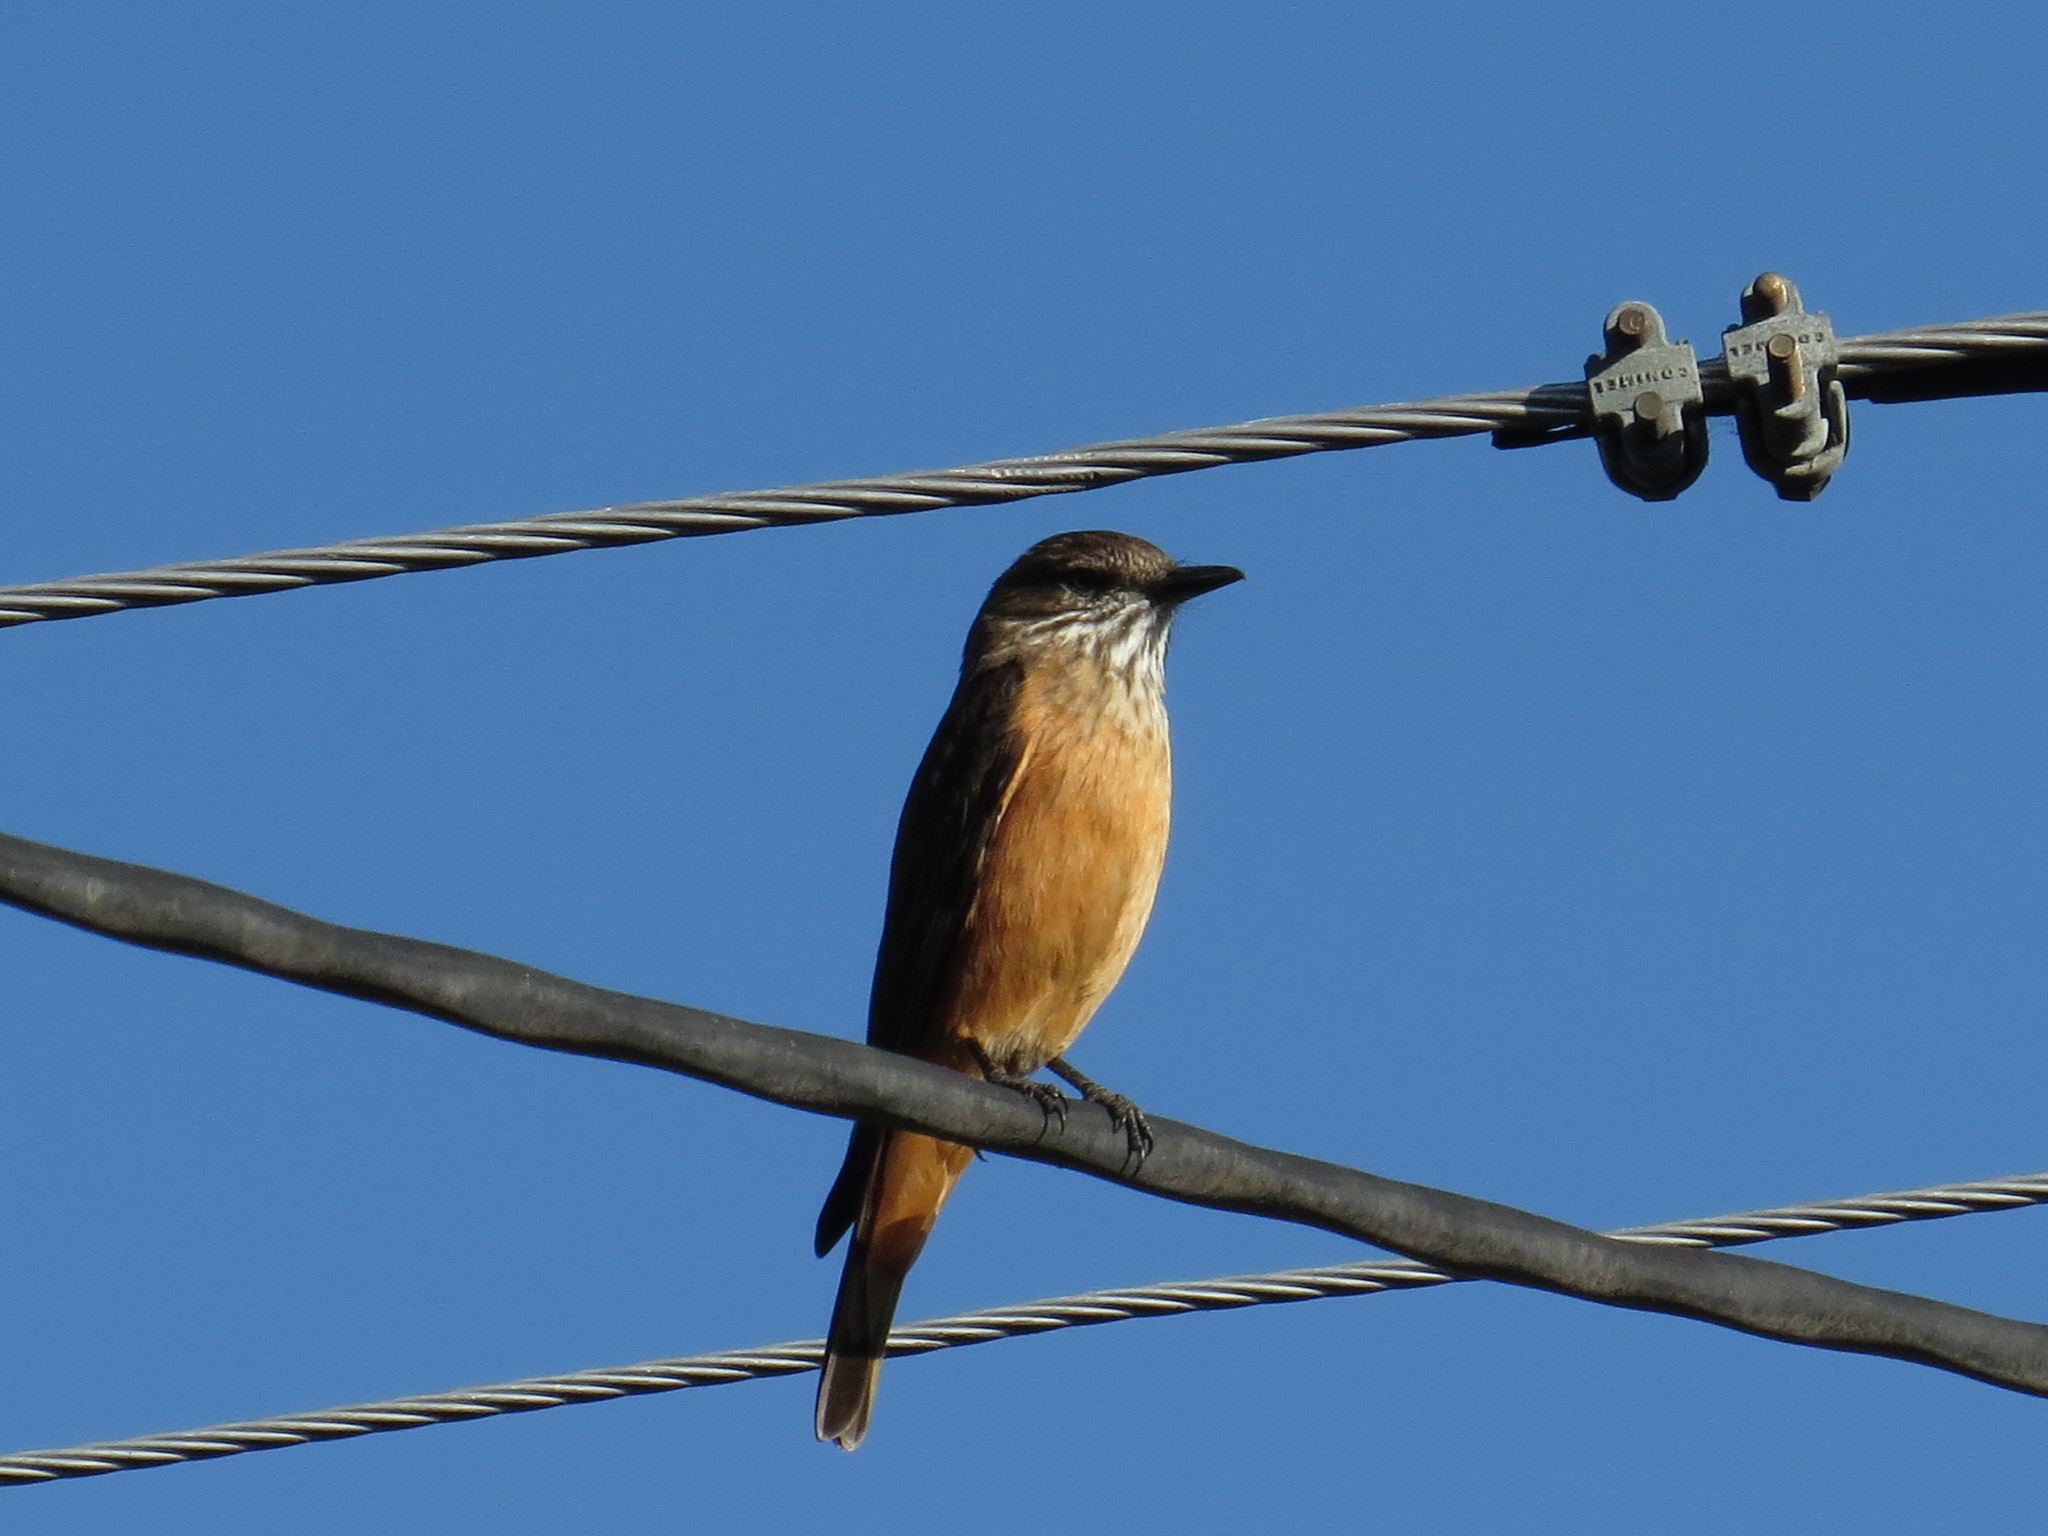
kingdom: Animalia
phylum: Chordata
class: Aves
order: Passeriformes
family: Tyrannidae
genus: Myiotheretes
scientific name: Myiotheretes striaticollis
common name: Streak-throated bush tyrant
